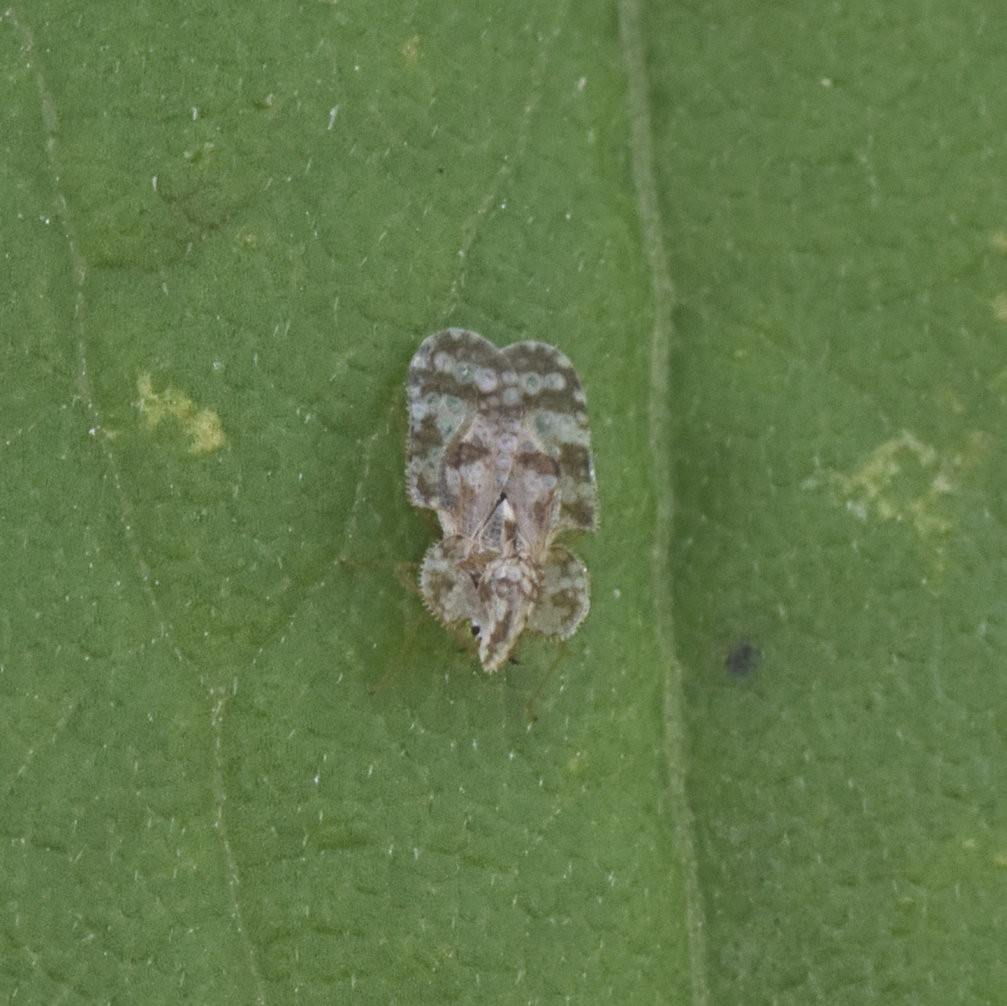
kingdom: Animalia
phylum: Arthropoda
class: Insecta
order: Hemiptera
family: Tingidae
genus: Corythucha
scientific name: Corythucha marmorata
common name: Chrysanthemum lace bug
